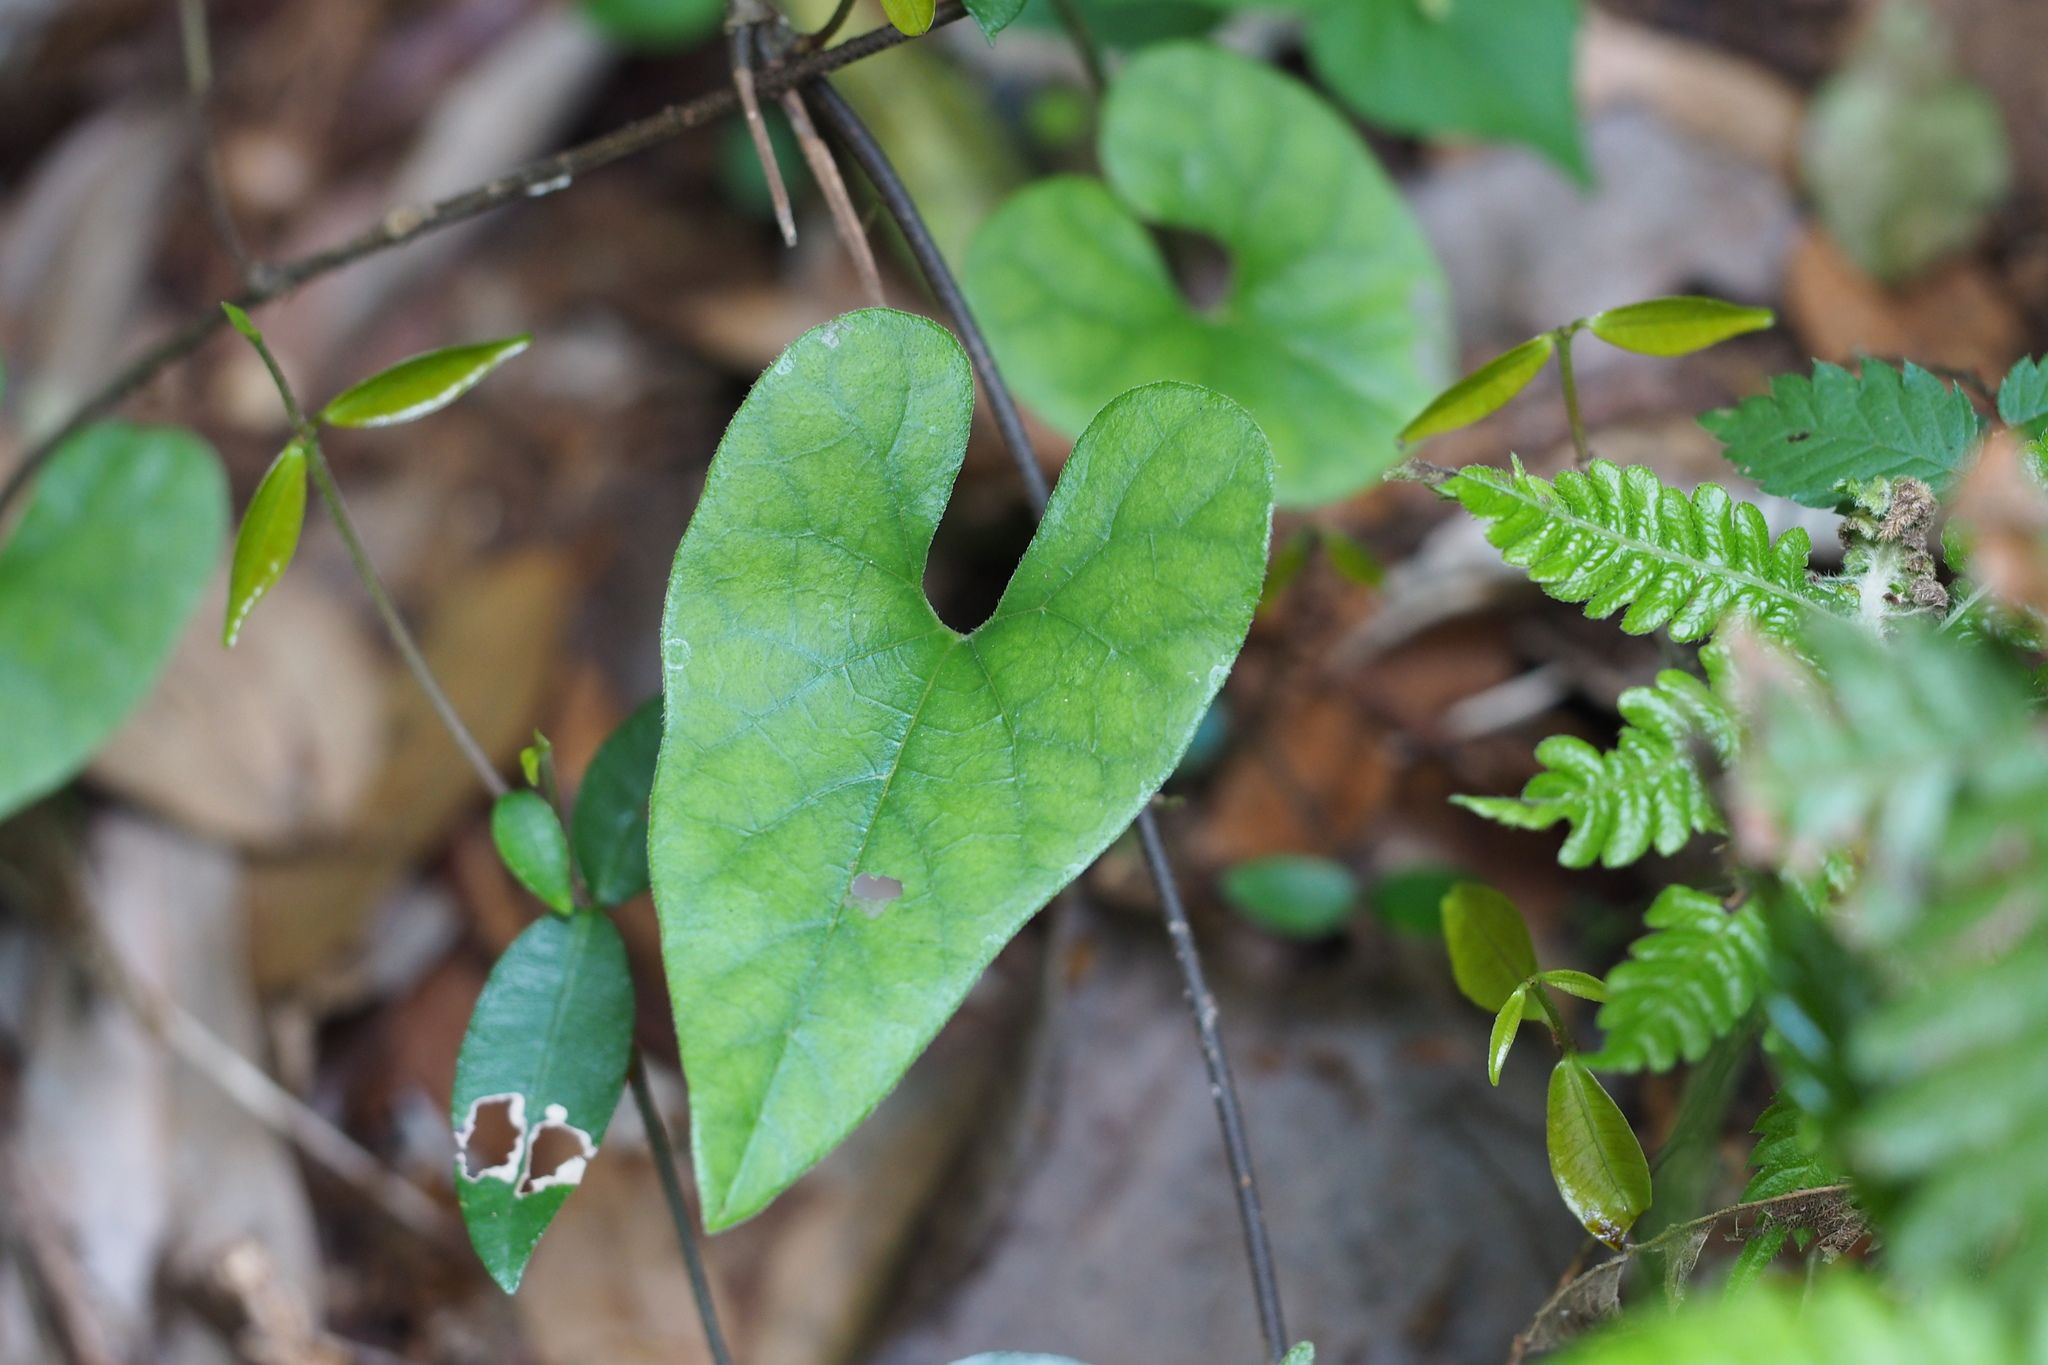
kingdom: Plantae
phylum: Tracheophyta
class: Magnoliopsida
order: Piperales
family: Aristolochiaceae
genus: Isotrema
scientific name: Isotrema kaempferi
